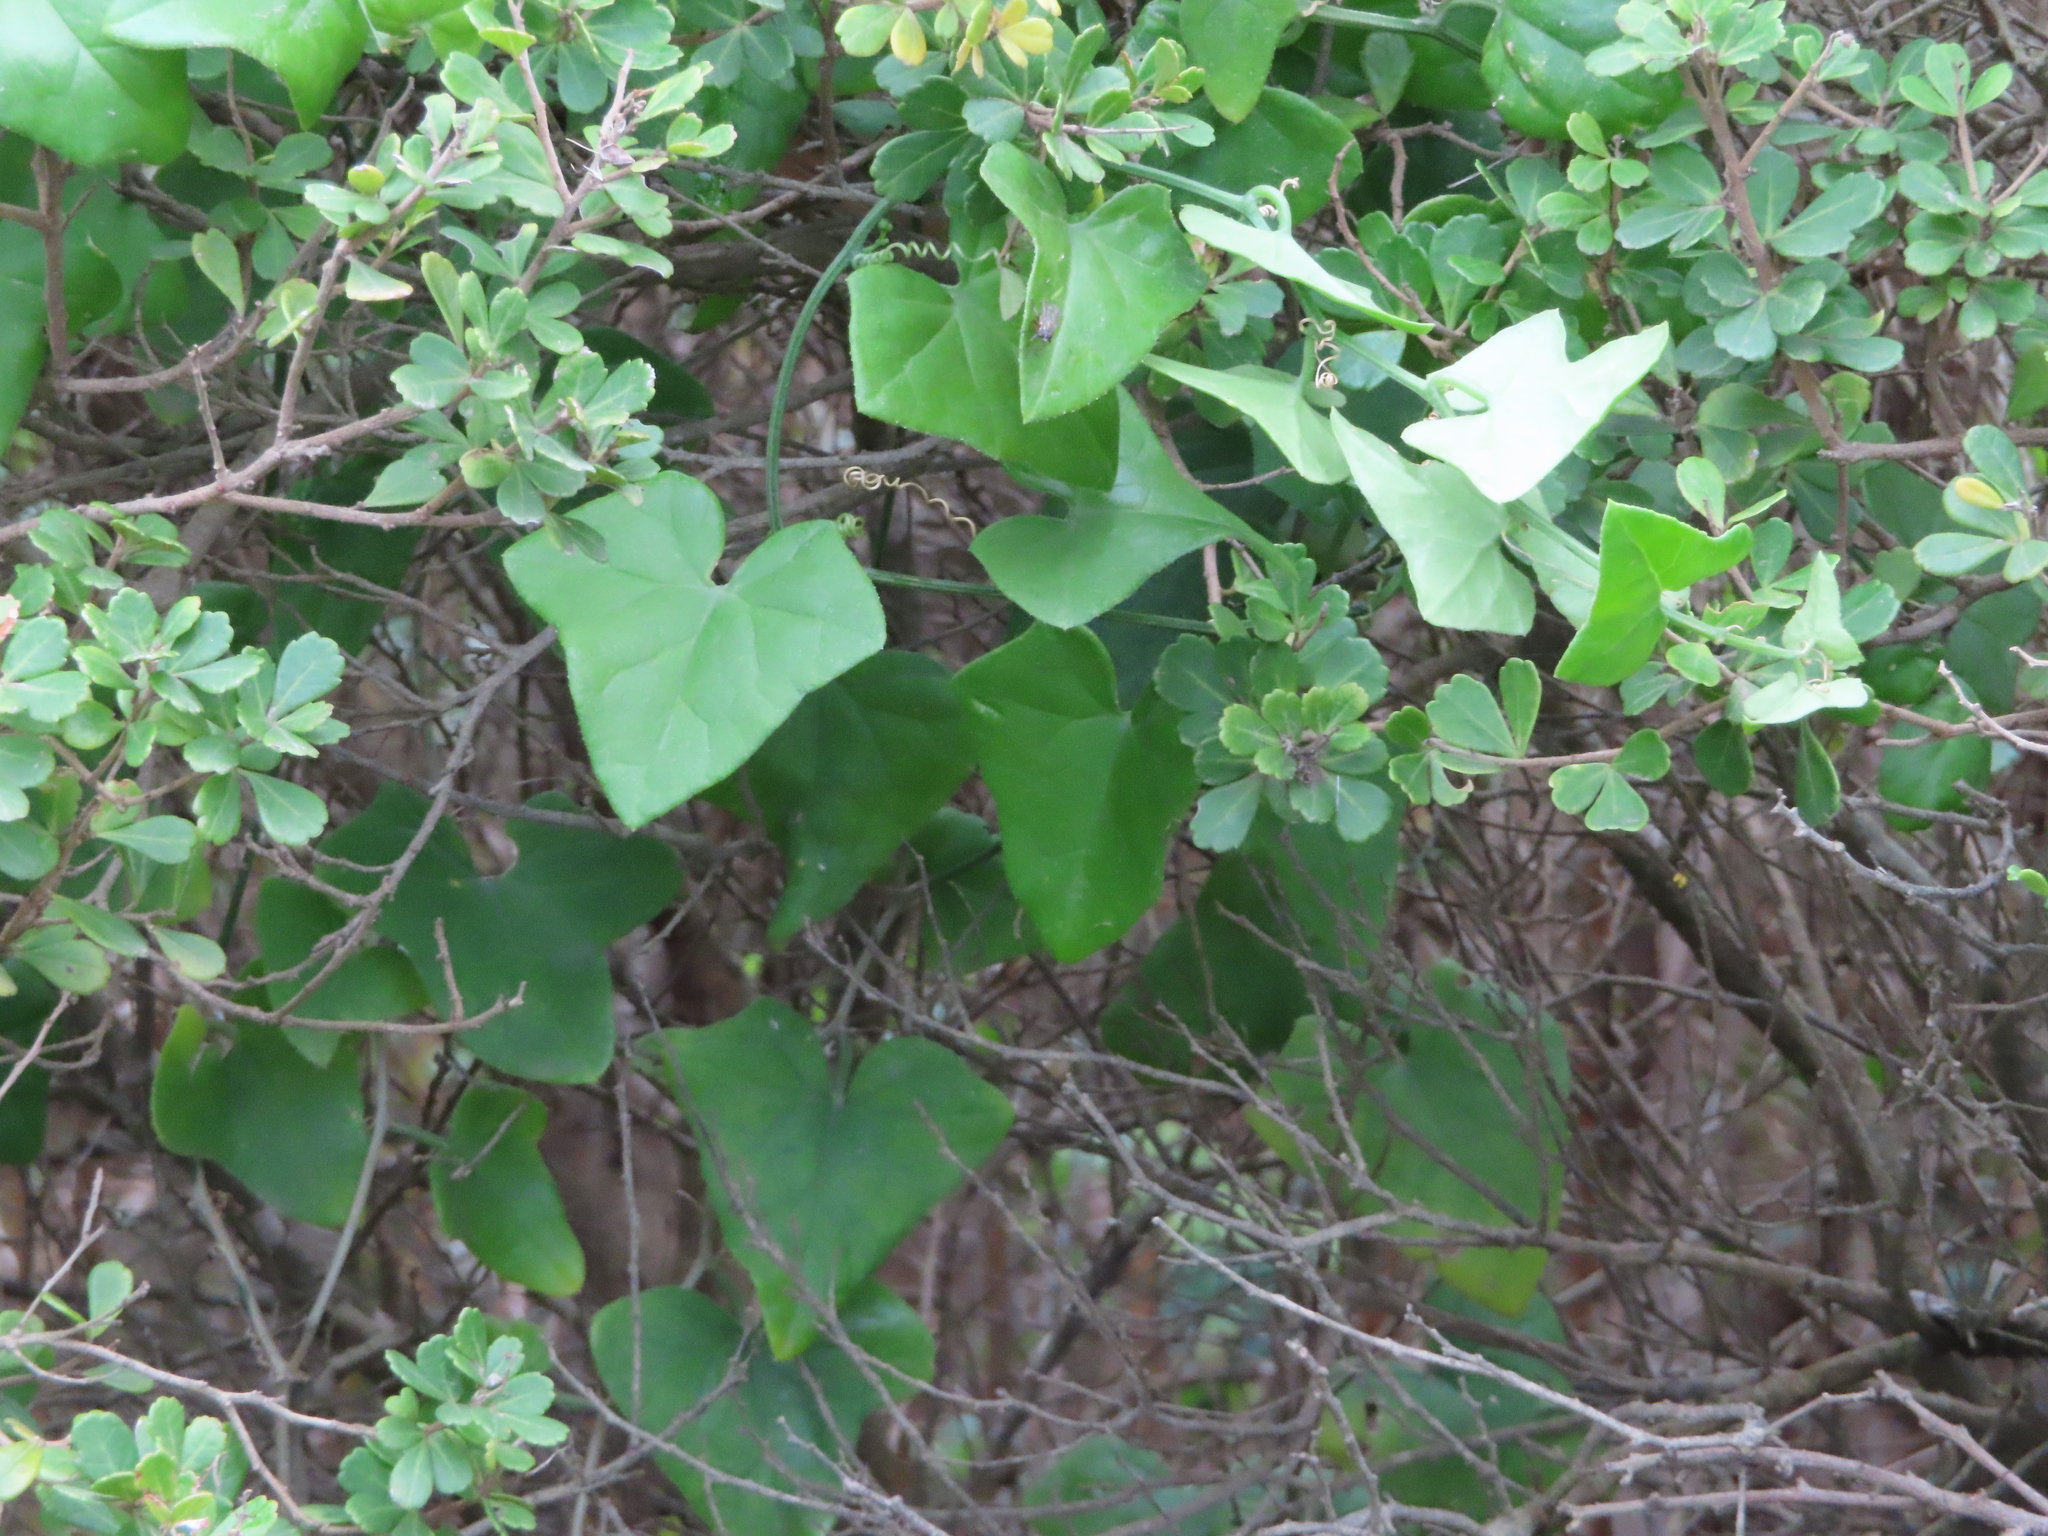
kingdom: Plantae
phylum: Tracheophyta
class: Magnoliopsida
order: Cucurbitales
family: Cucurbitaceae
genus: Kedrostis
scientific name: Kedrostis nana
